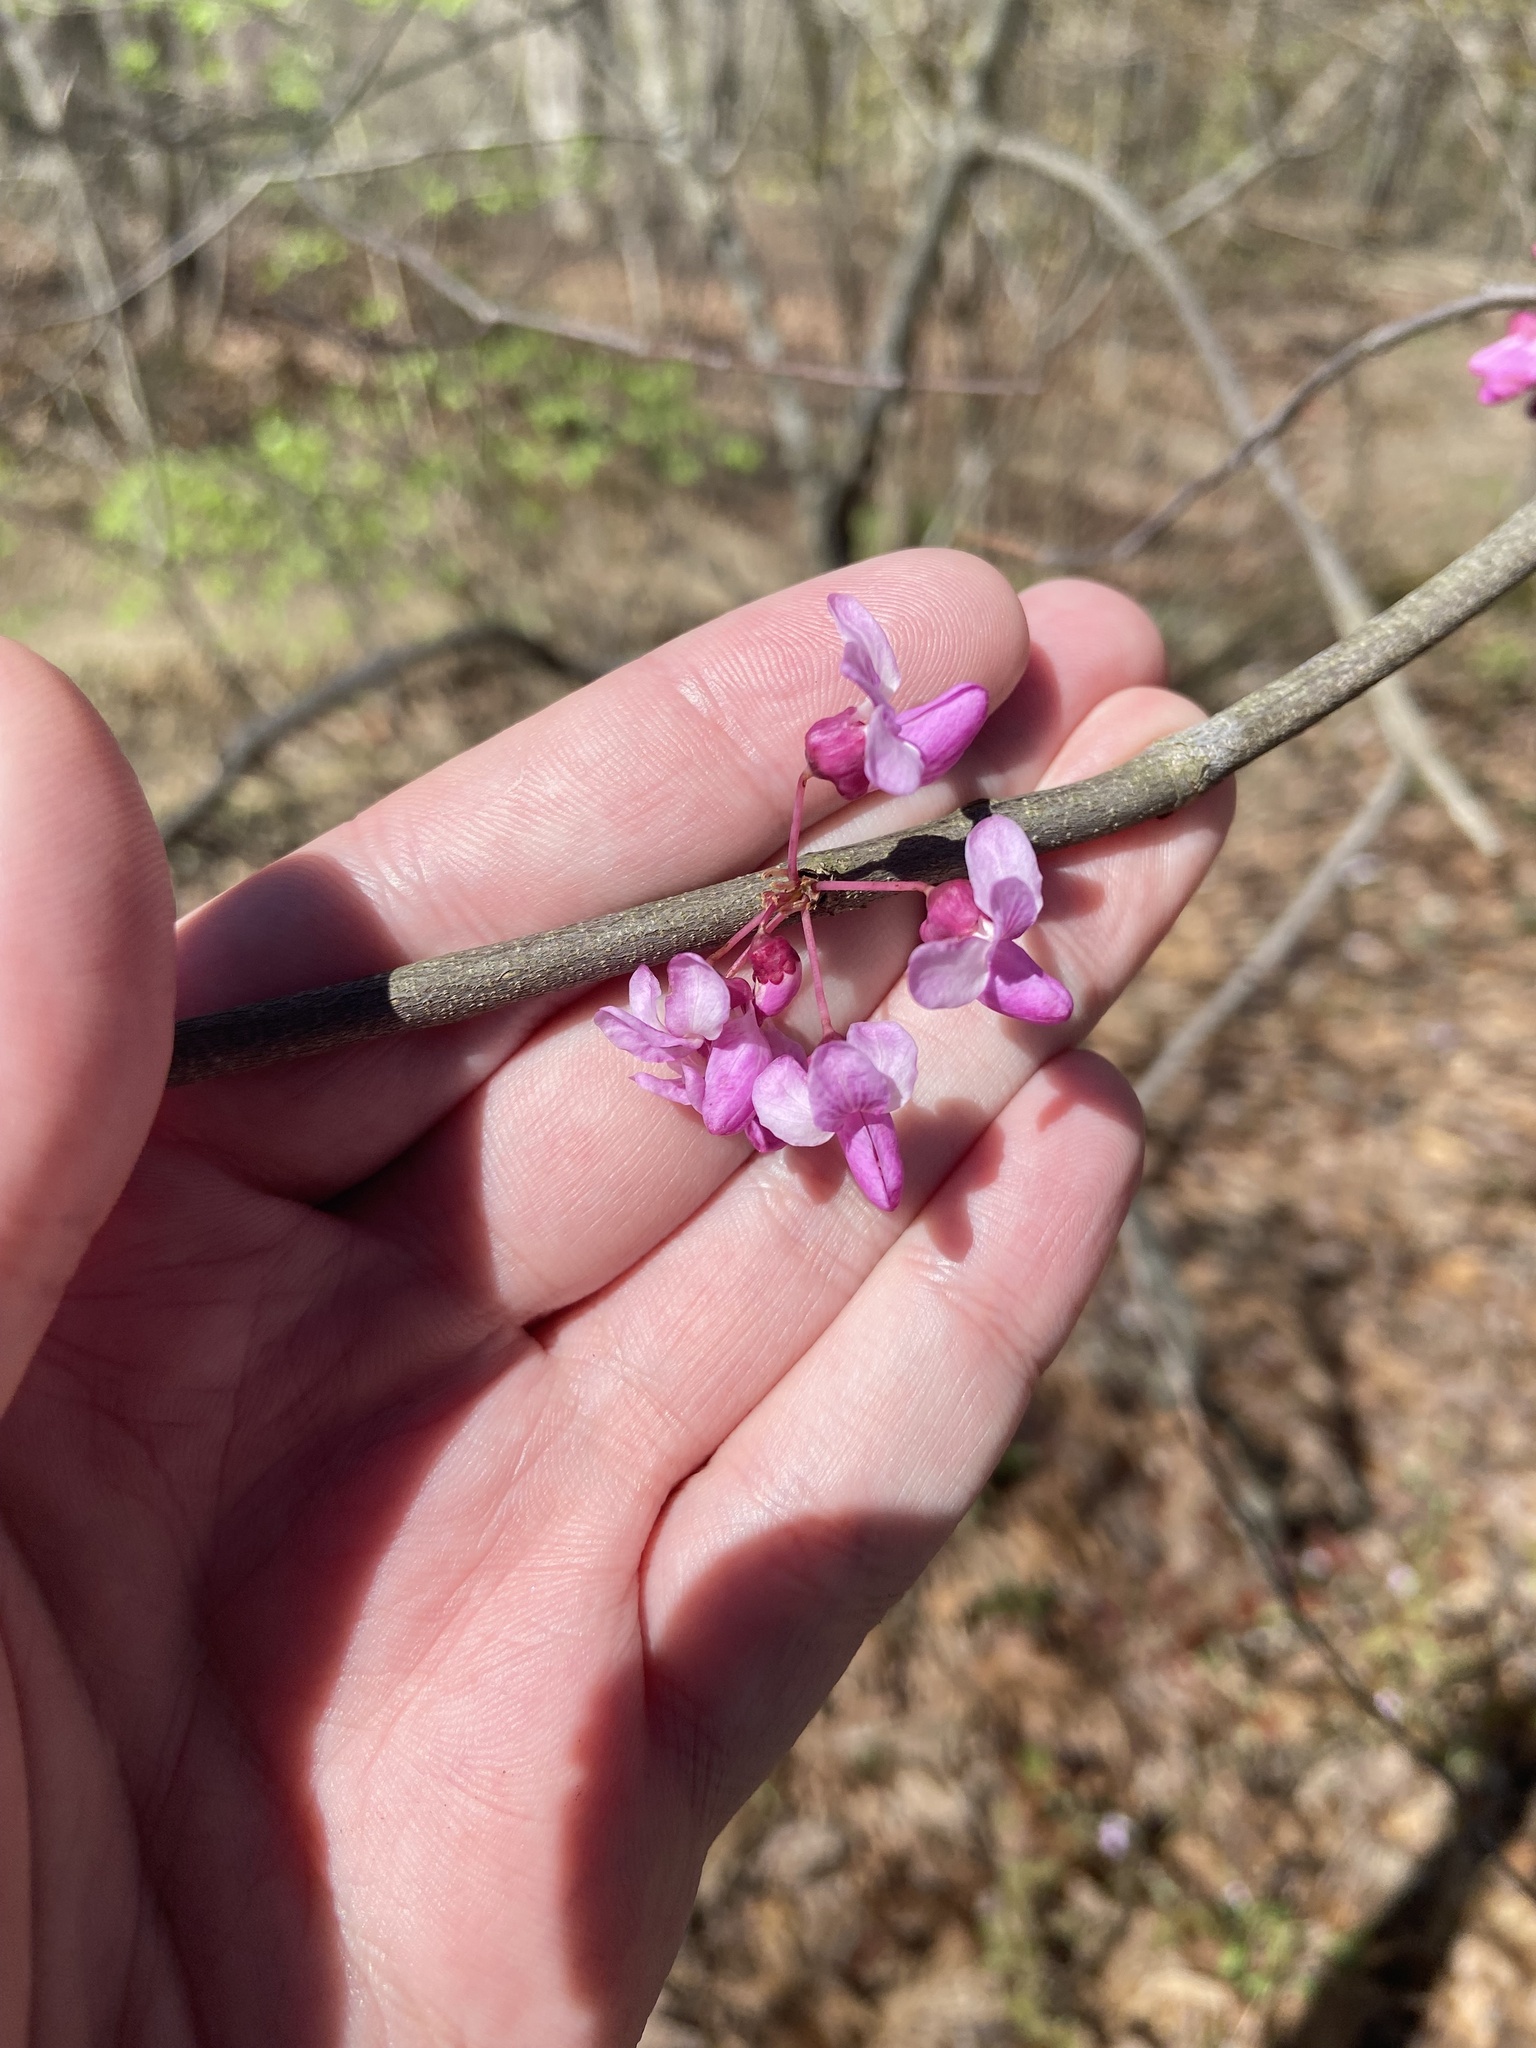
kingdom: Plantae
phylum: Tracheophyta
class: Magnoliopsida
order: Fabales
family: Fabaceae
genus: Cercis
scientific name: Cercis canadensis
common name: Eastern redbud
